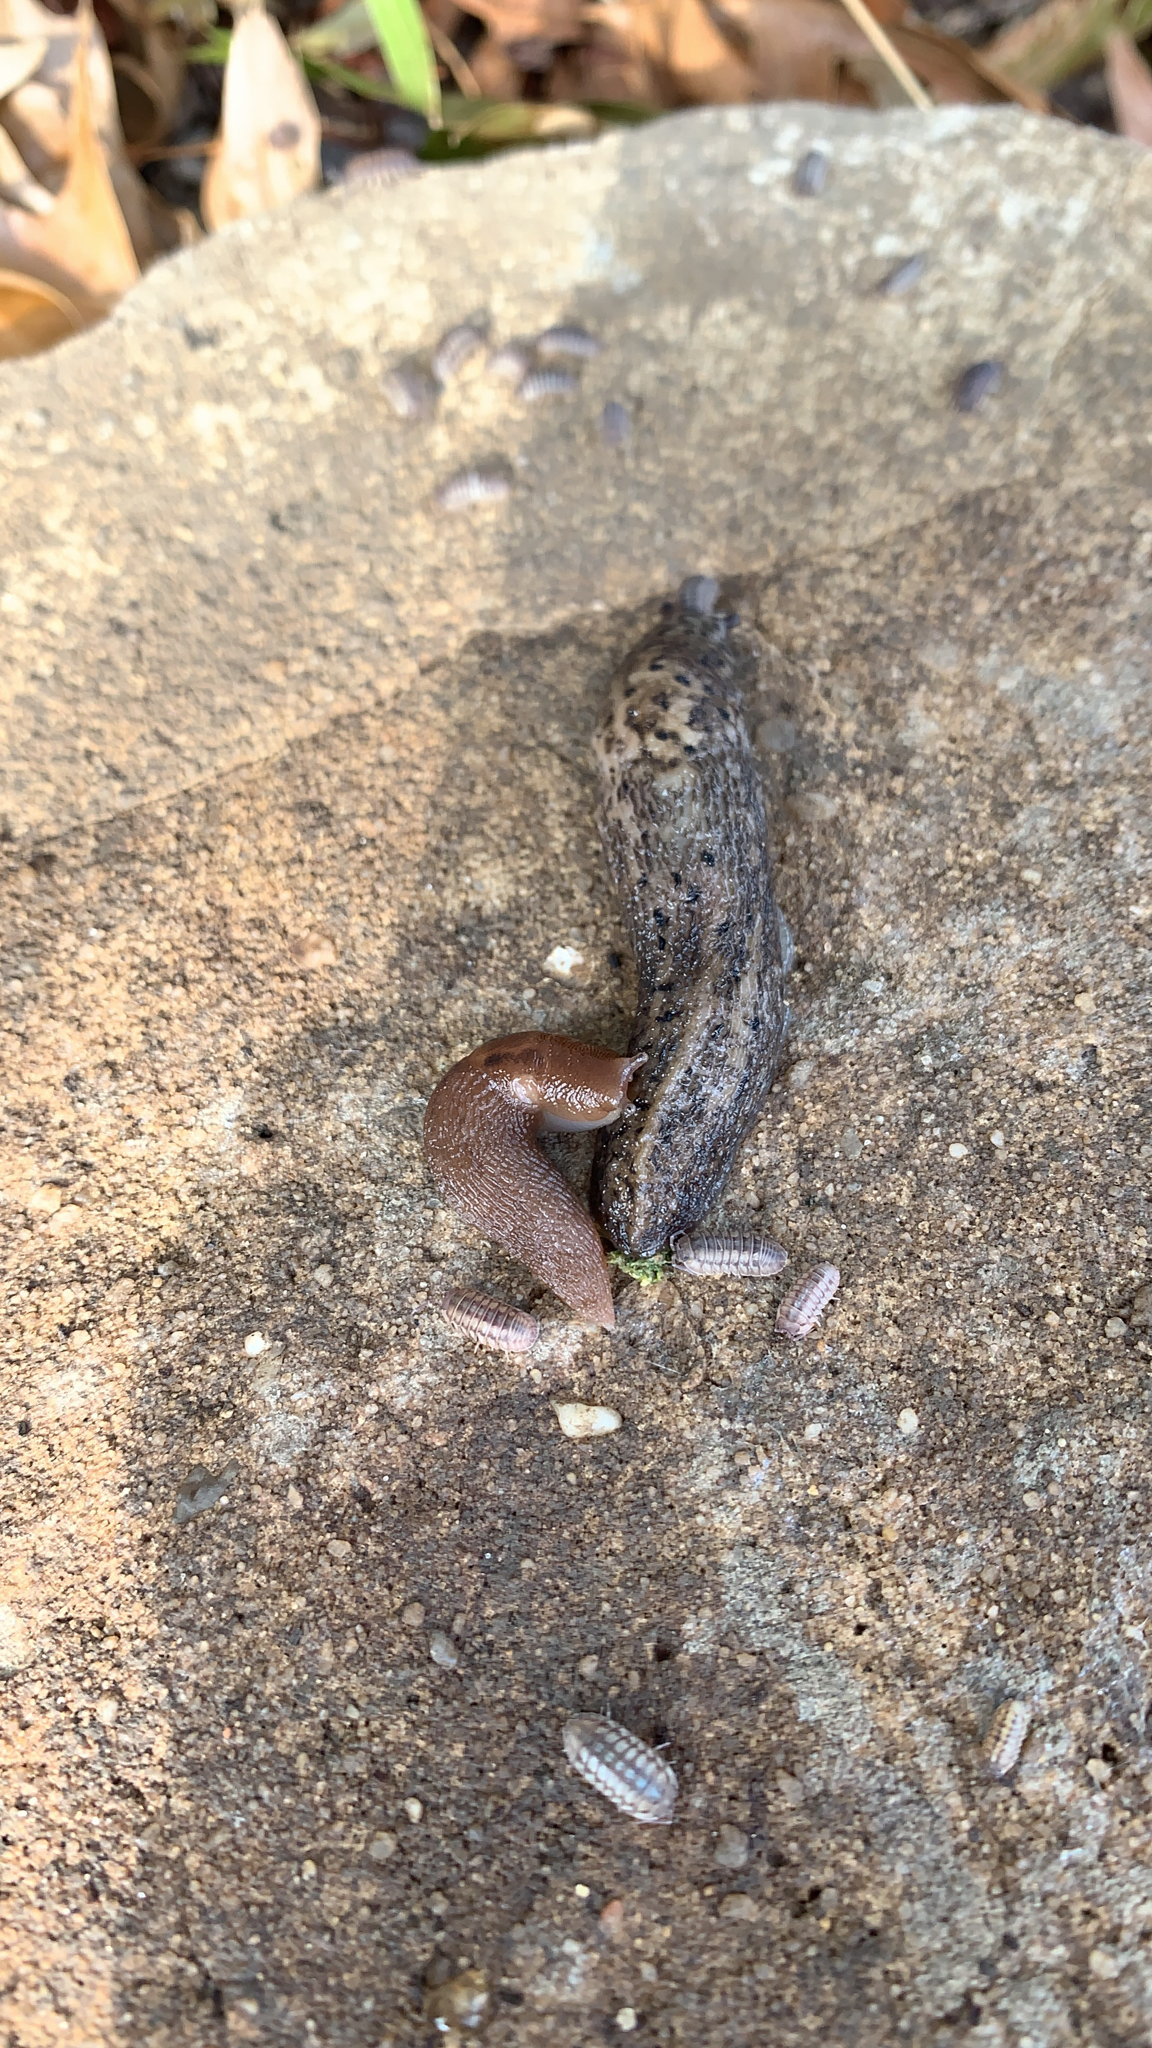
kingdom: Animalia
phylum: Mollusca
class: Gastropoda
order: Stylommatophora
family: Limacidae
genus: Limax
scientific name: Limax maximus
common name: Great grey slug
